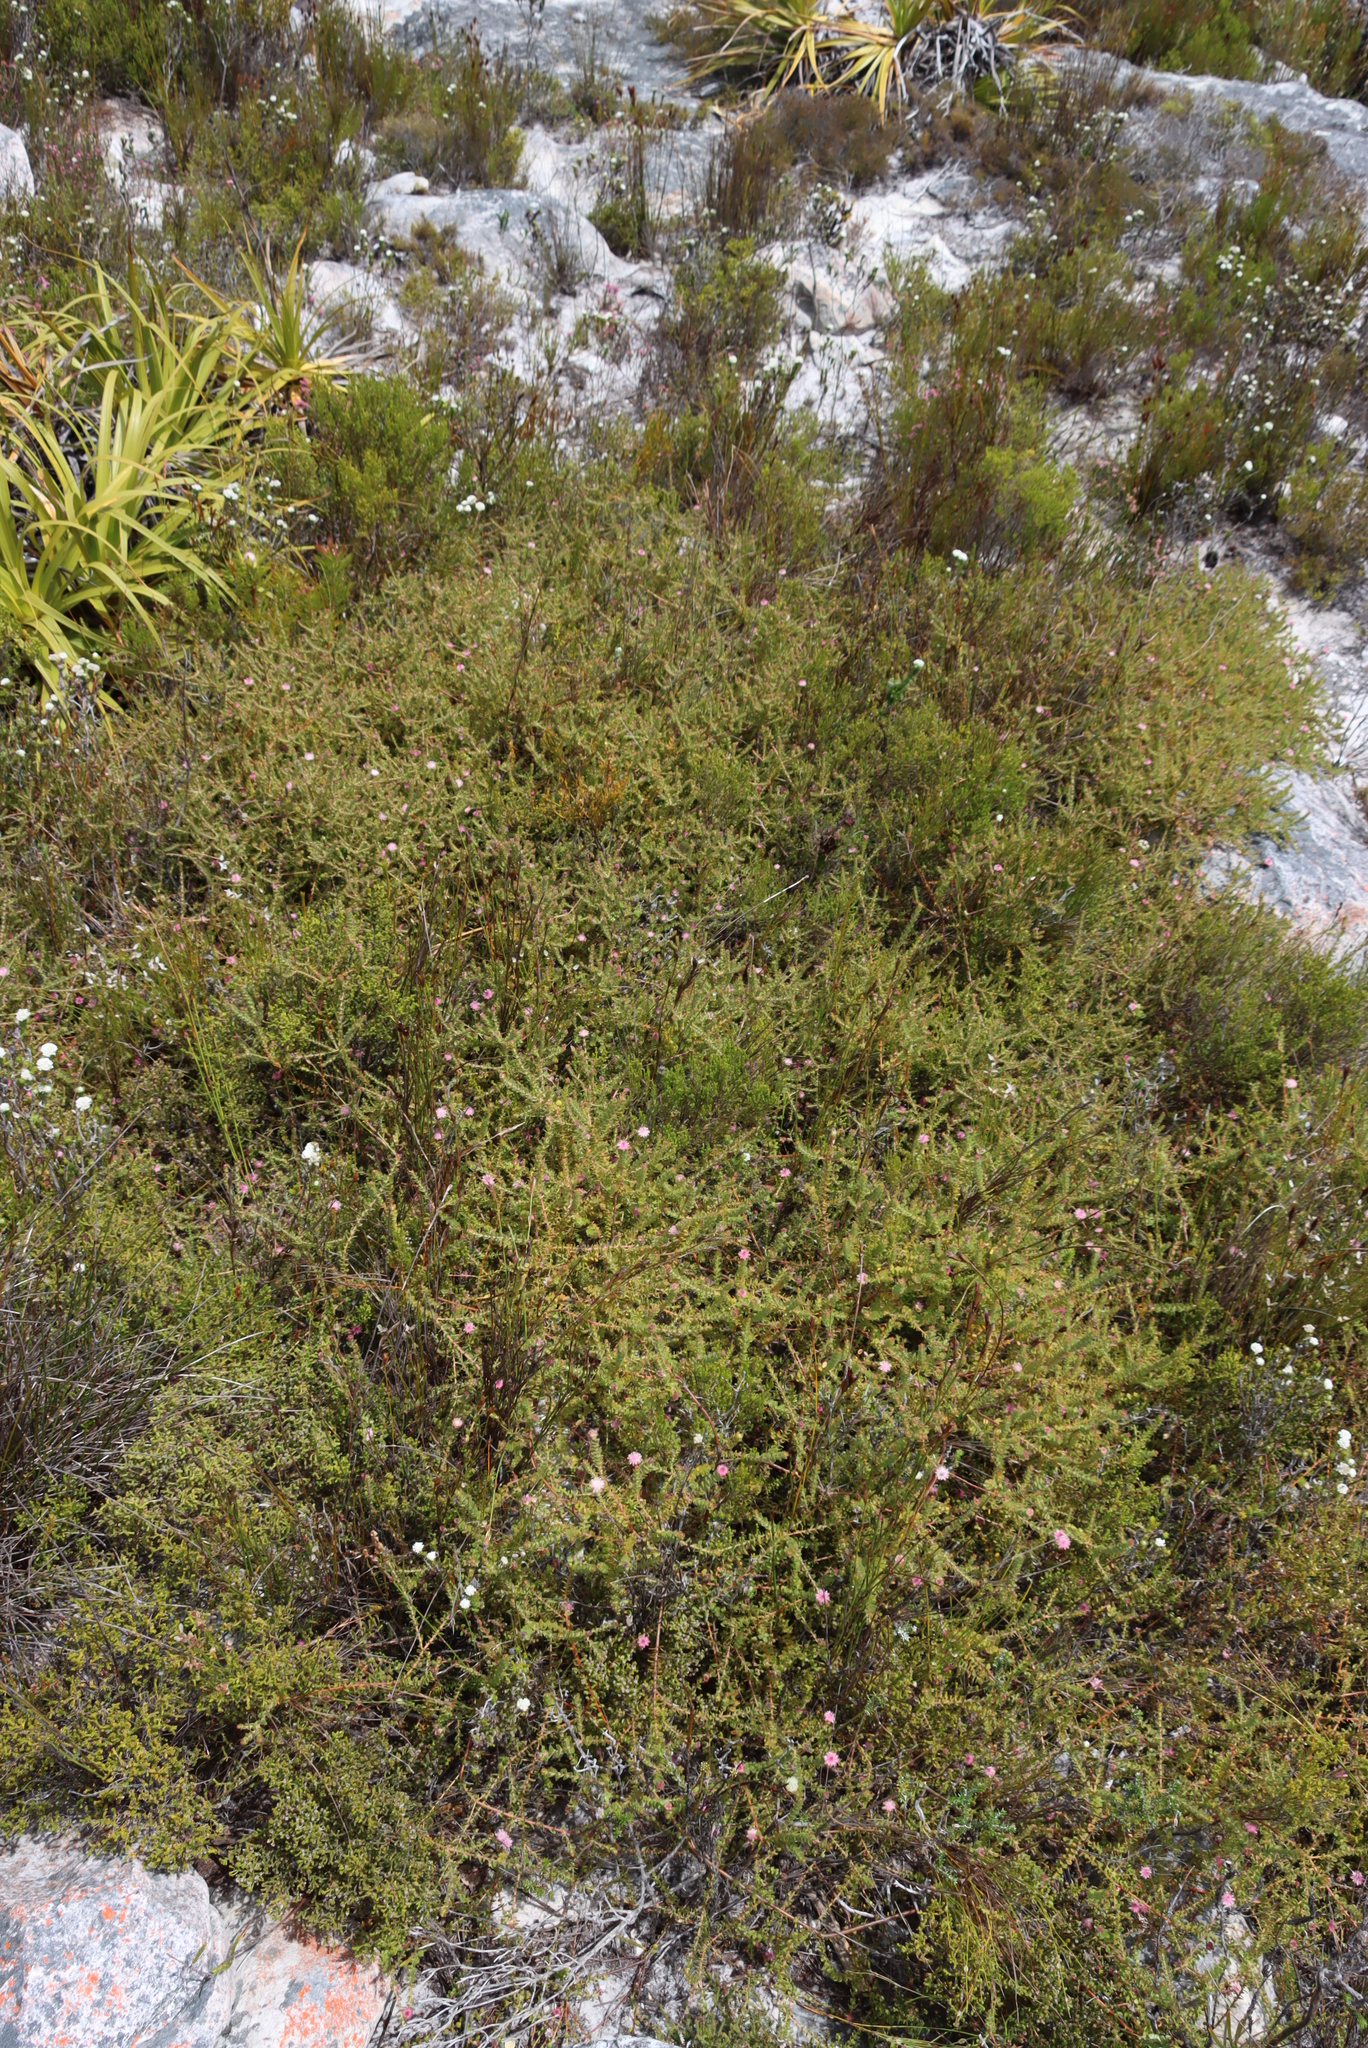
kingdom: Plantae
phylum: Tracheophyta
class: Magnoliopsida
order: Proteales
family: Proteaceae
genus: Diastella
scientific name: Diastella divaricata
